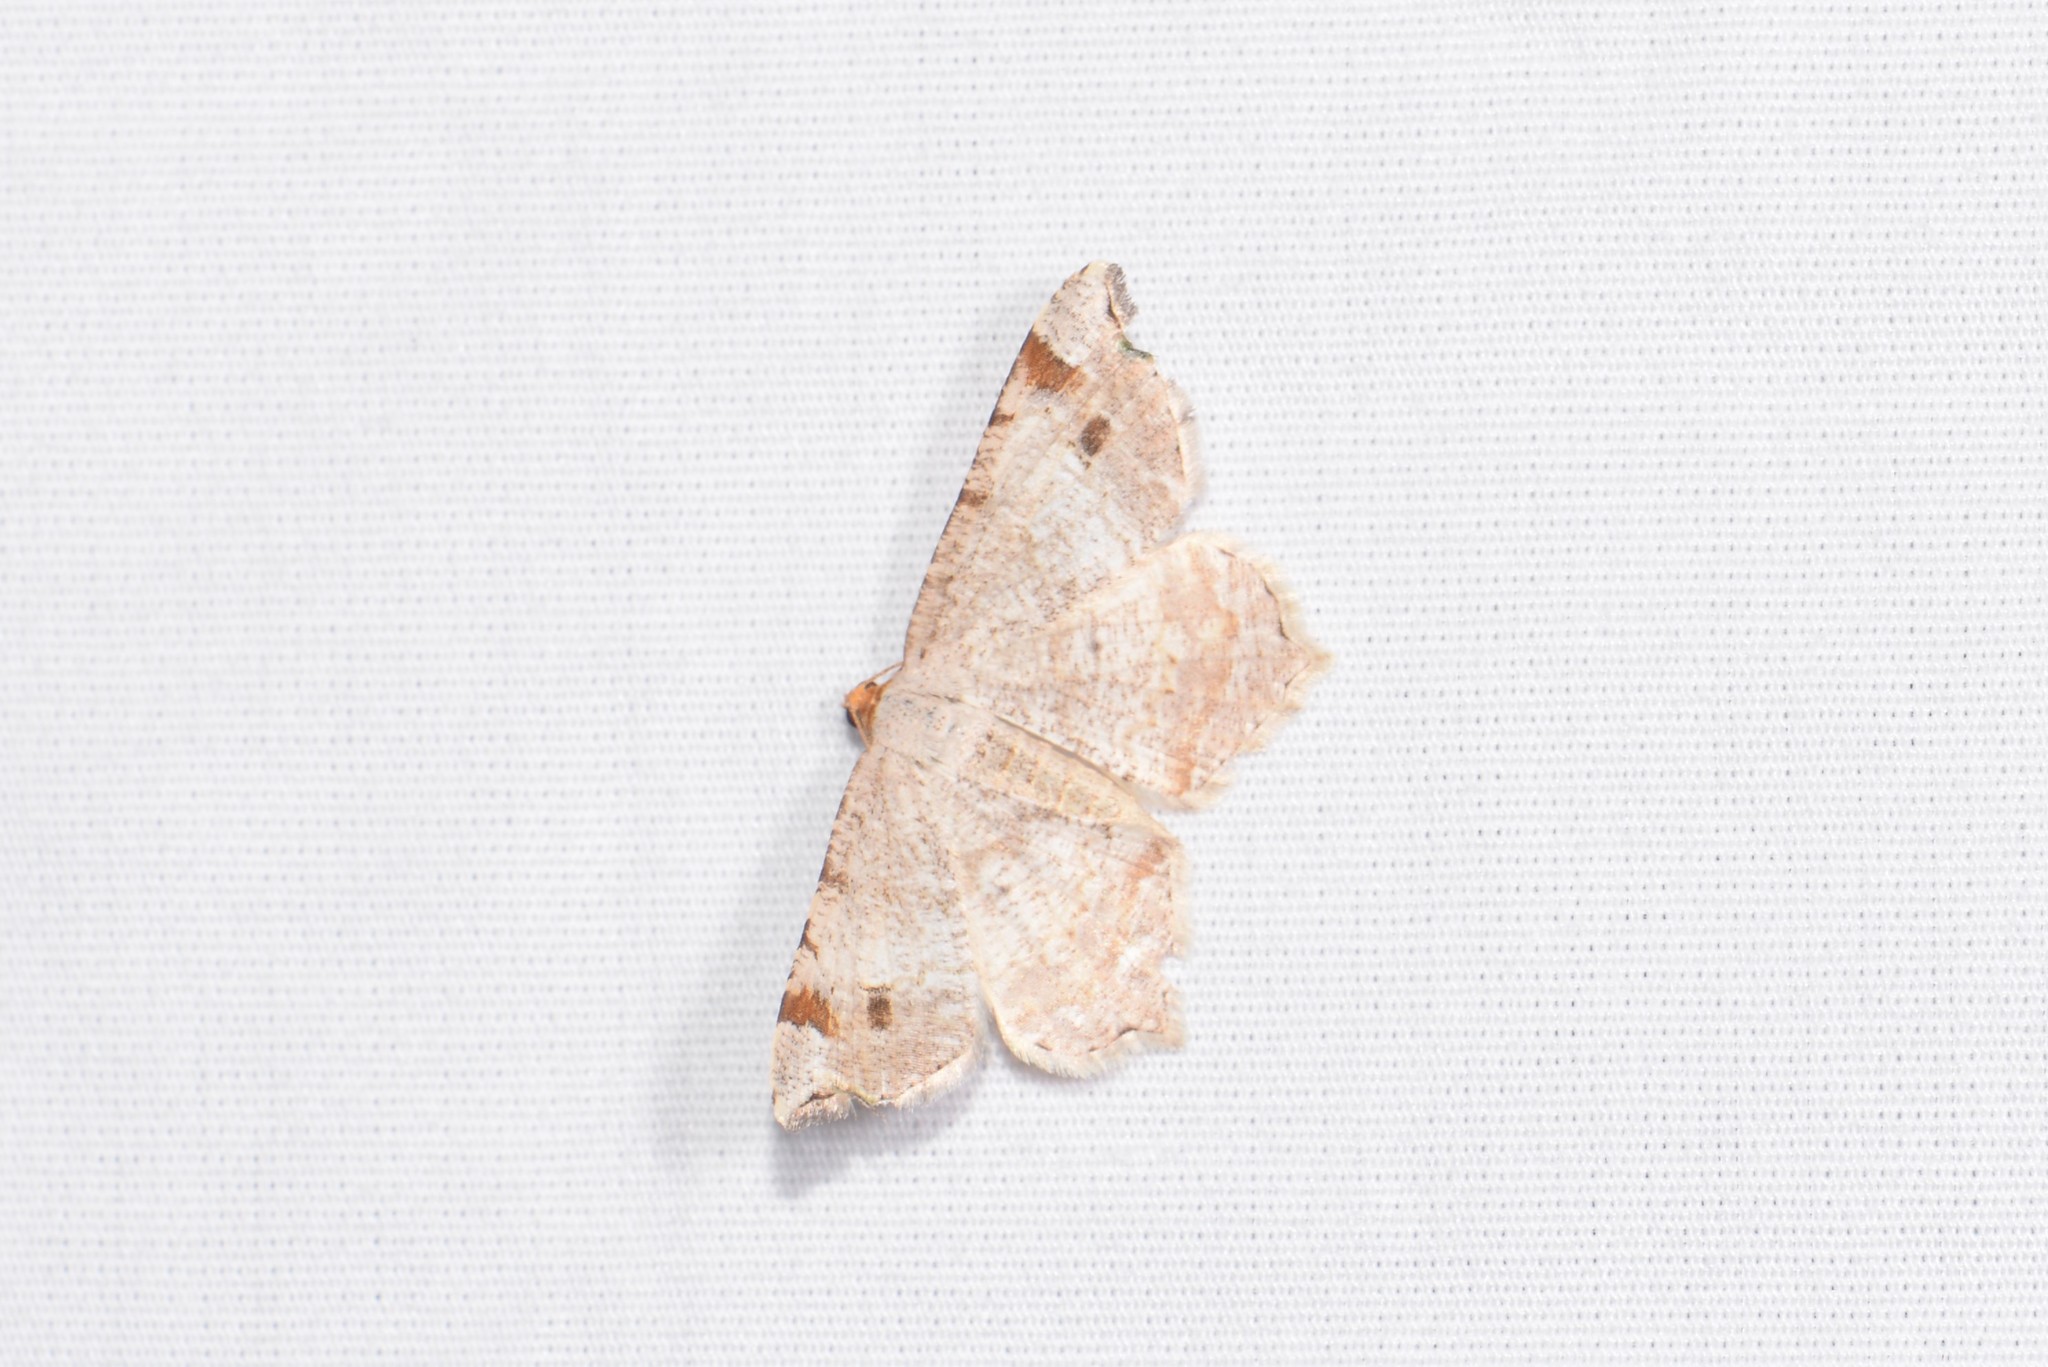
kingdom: Animalia
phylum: Arthropoda
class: Insecta
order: Lepidoptera
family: Geometridae
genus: Macaria
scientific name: Macaria bisignata
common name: Red-headed inchworm
